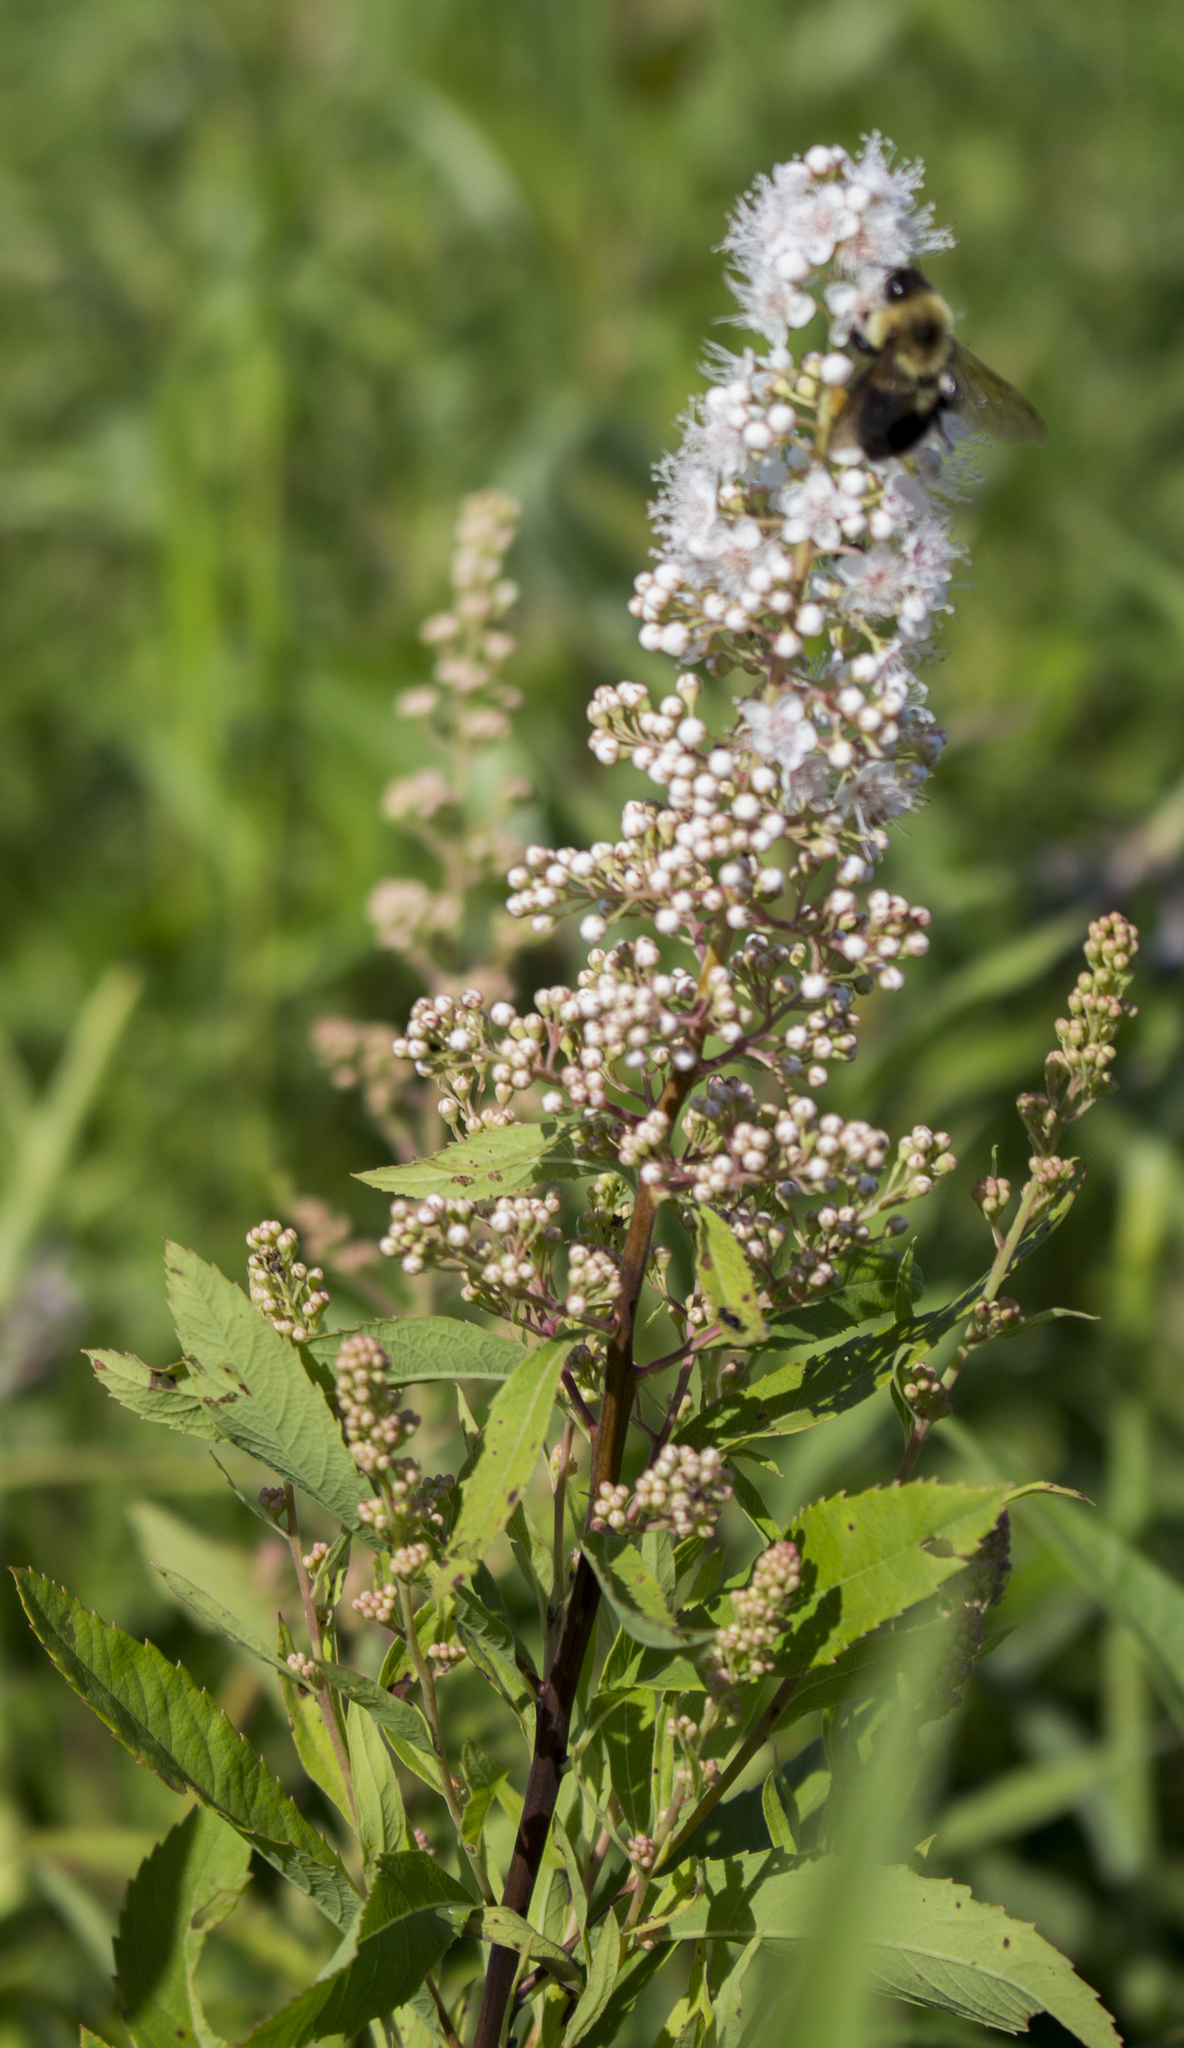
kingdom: Plantae
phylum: Tracheophyta
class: Magnoliopsida
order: Rosales
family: Rosaceae
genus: Spiraea
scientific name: Spiraea alba
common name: Pale bridewort
